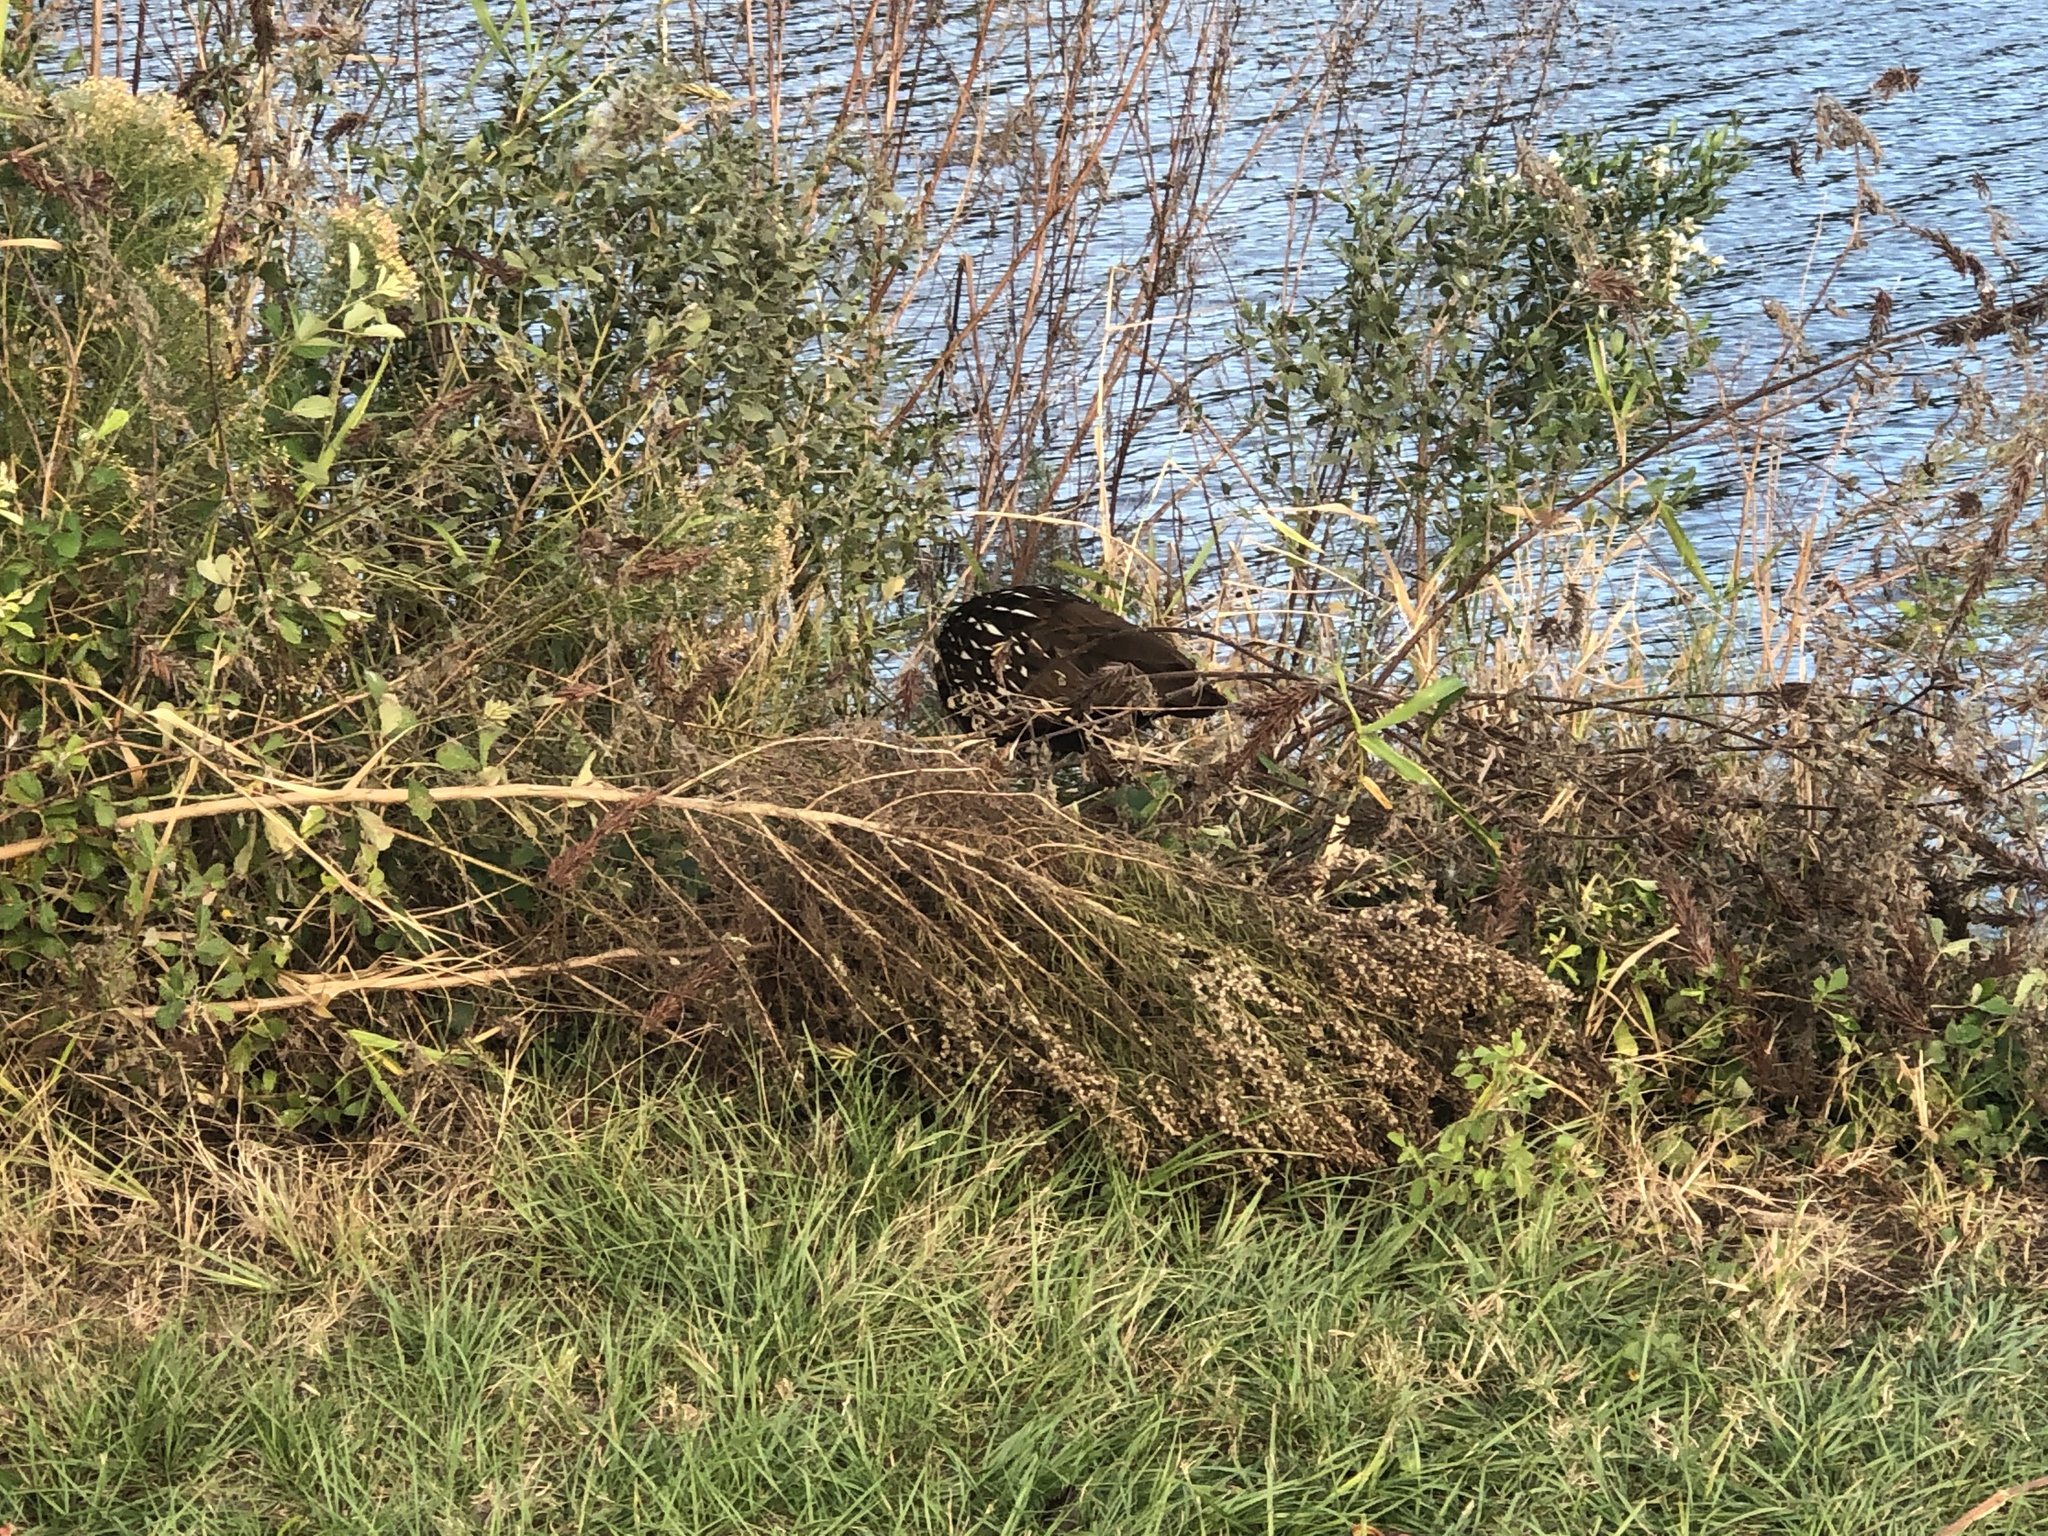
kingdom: Animalia
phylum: Chordata
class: Aves
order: Gruiformes
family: Aramidae
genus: Aramus
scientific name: Aramus guarauna
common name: Limpkin
